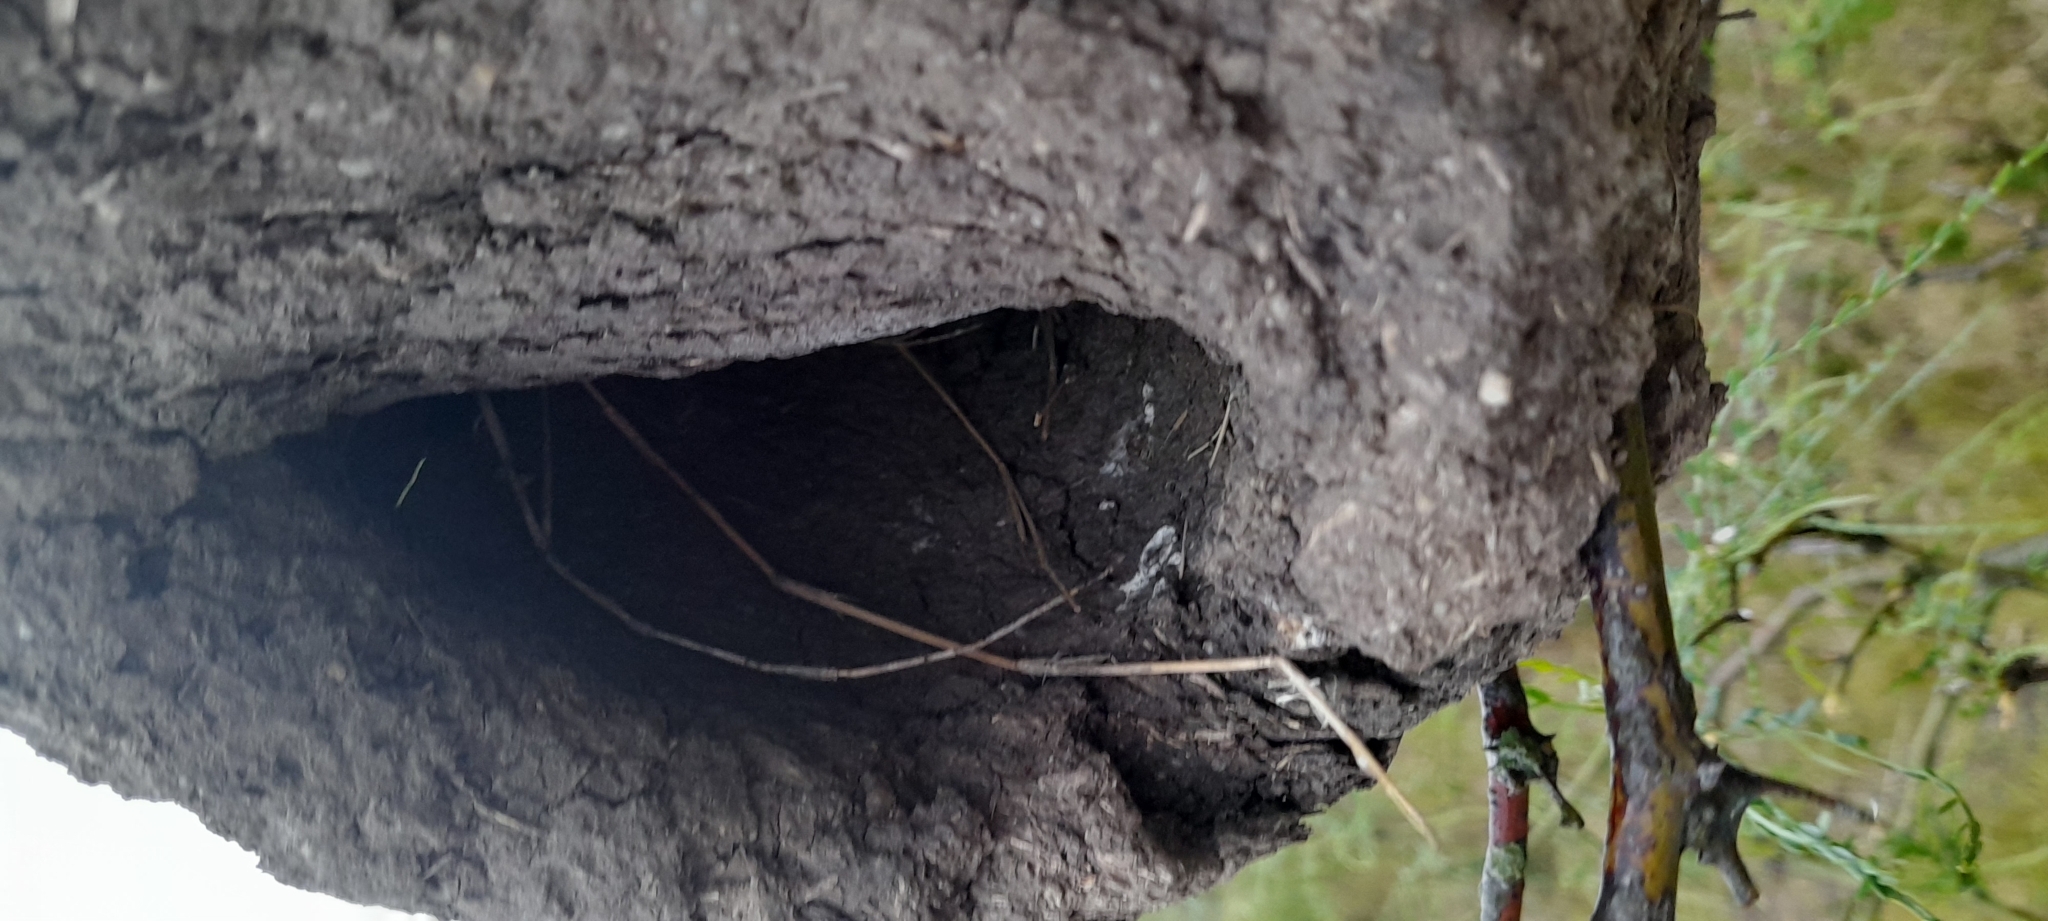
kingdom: Animalia
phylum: Chordata
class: Aves
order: Passeriformes
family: Furnariidae
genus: Furnarius
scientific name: Furnarius rufus
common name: Rufous hornero
